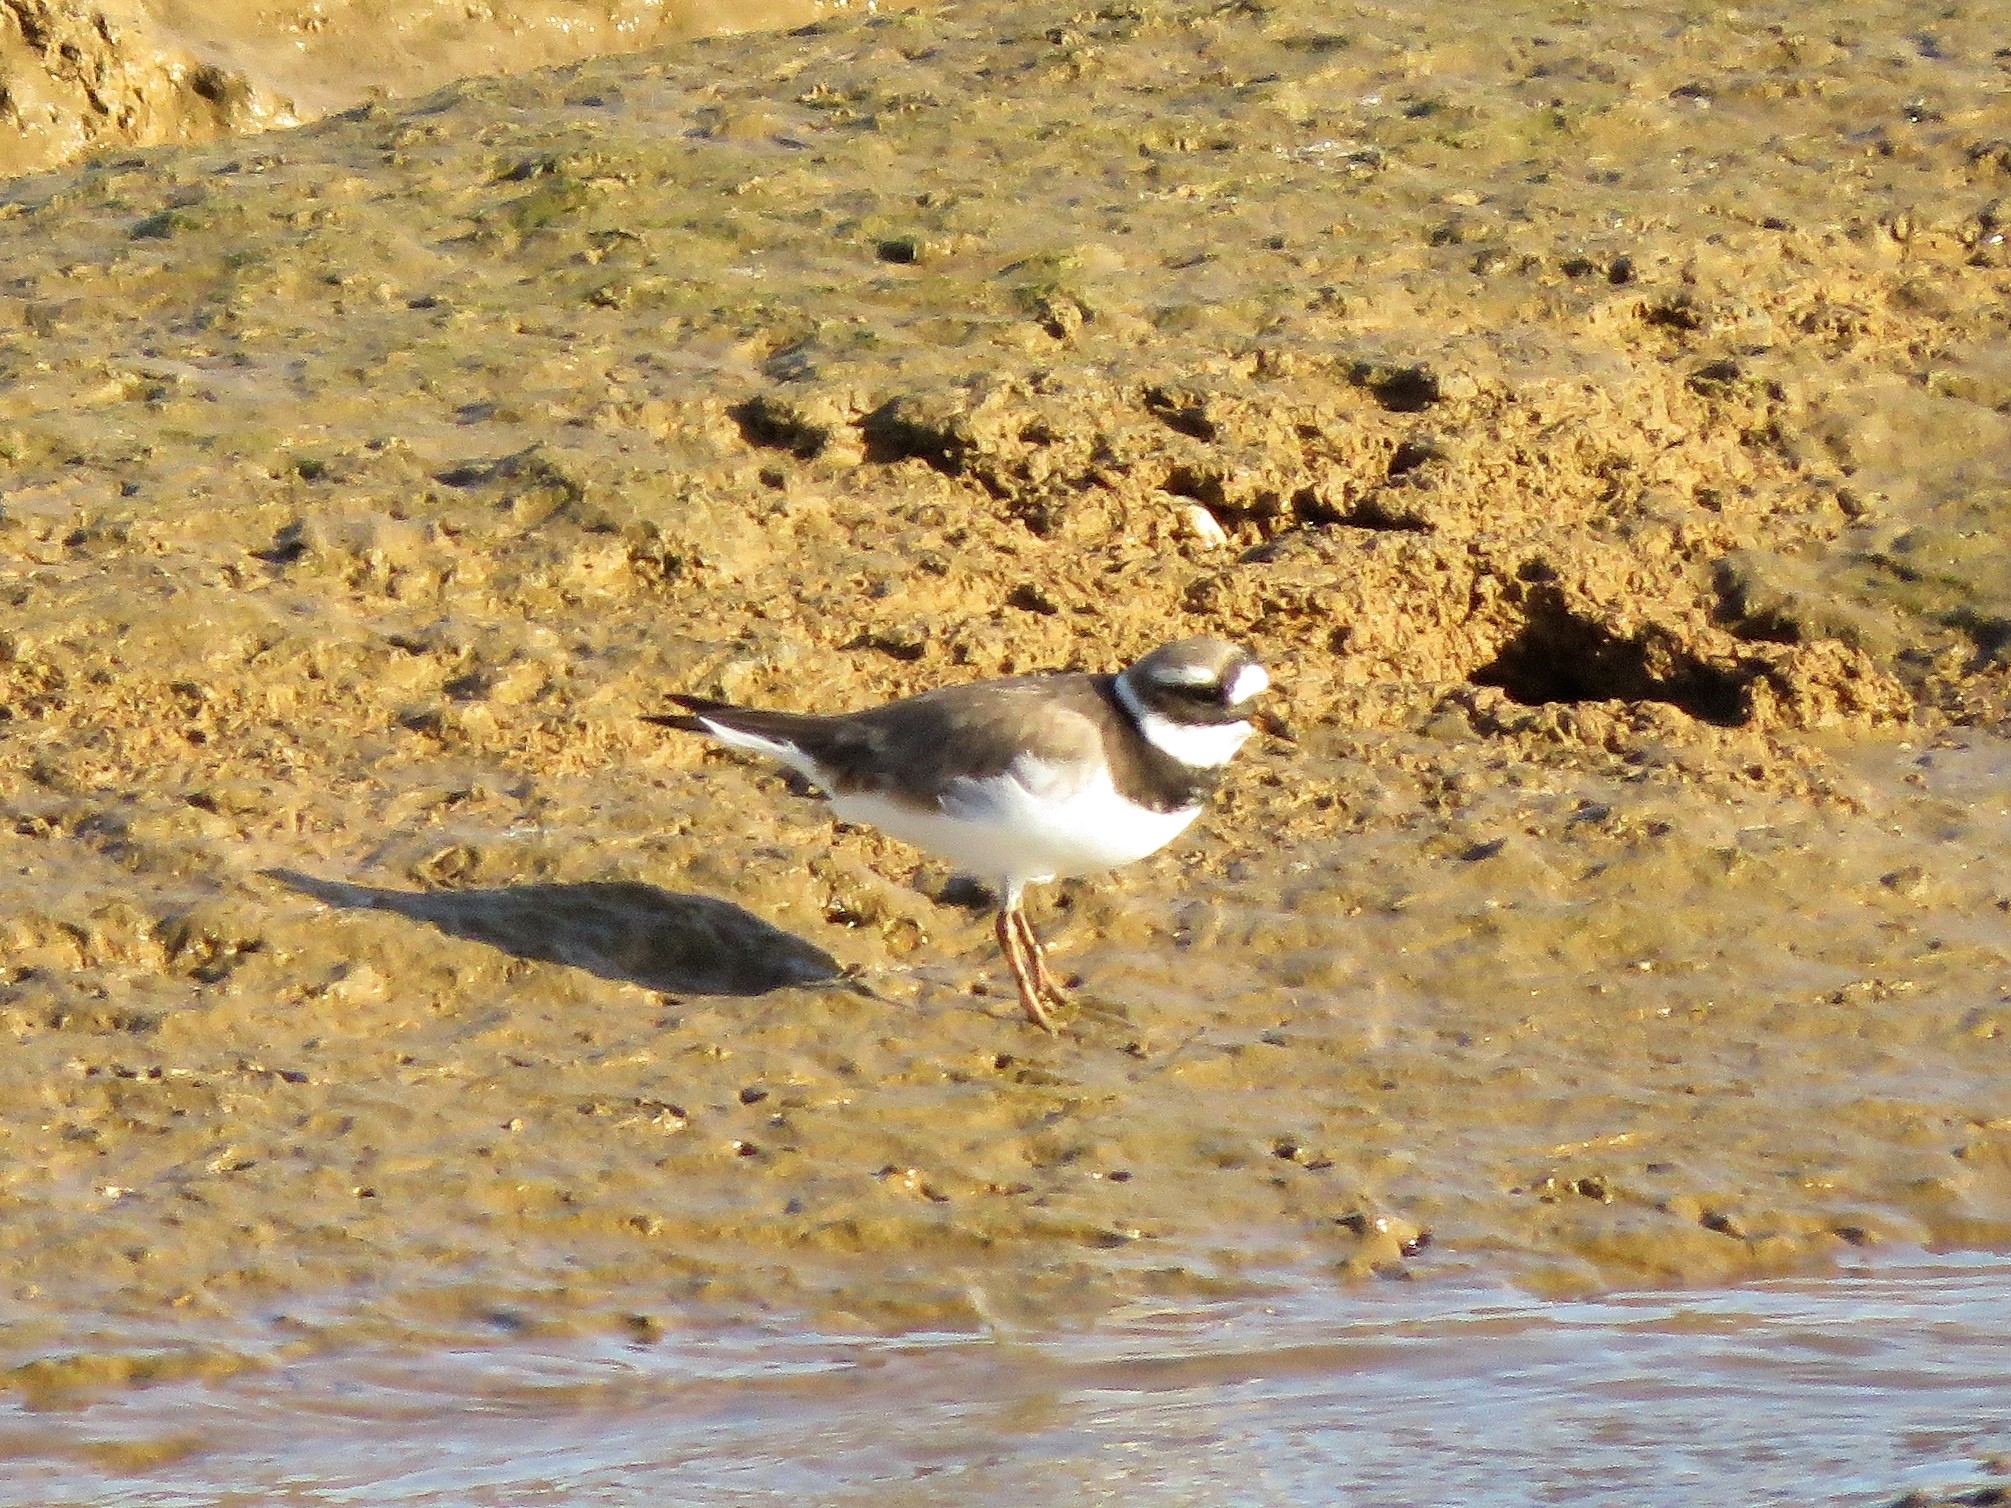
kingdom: Animalia
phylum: Chordata
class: Aves
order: Charadriiformes
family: Charadriidae
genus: Charadrius
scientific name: Charadrius hiaticula
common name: Common ringed plover
